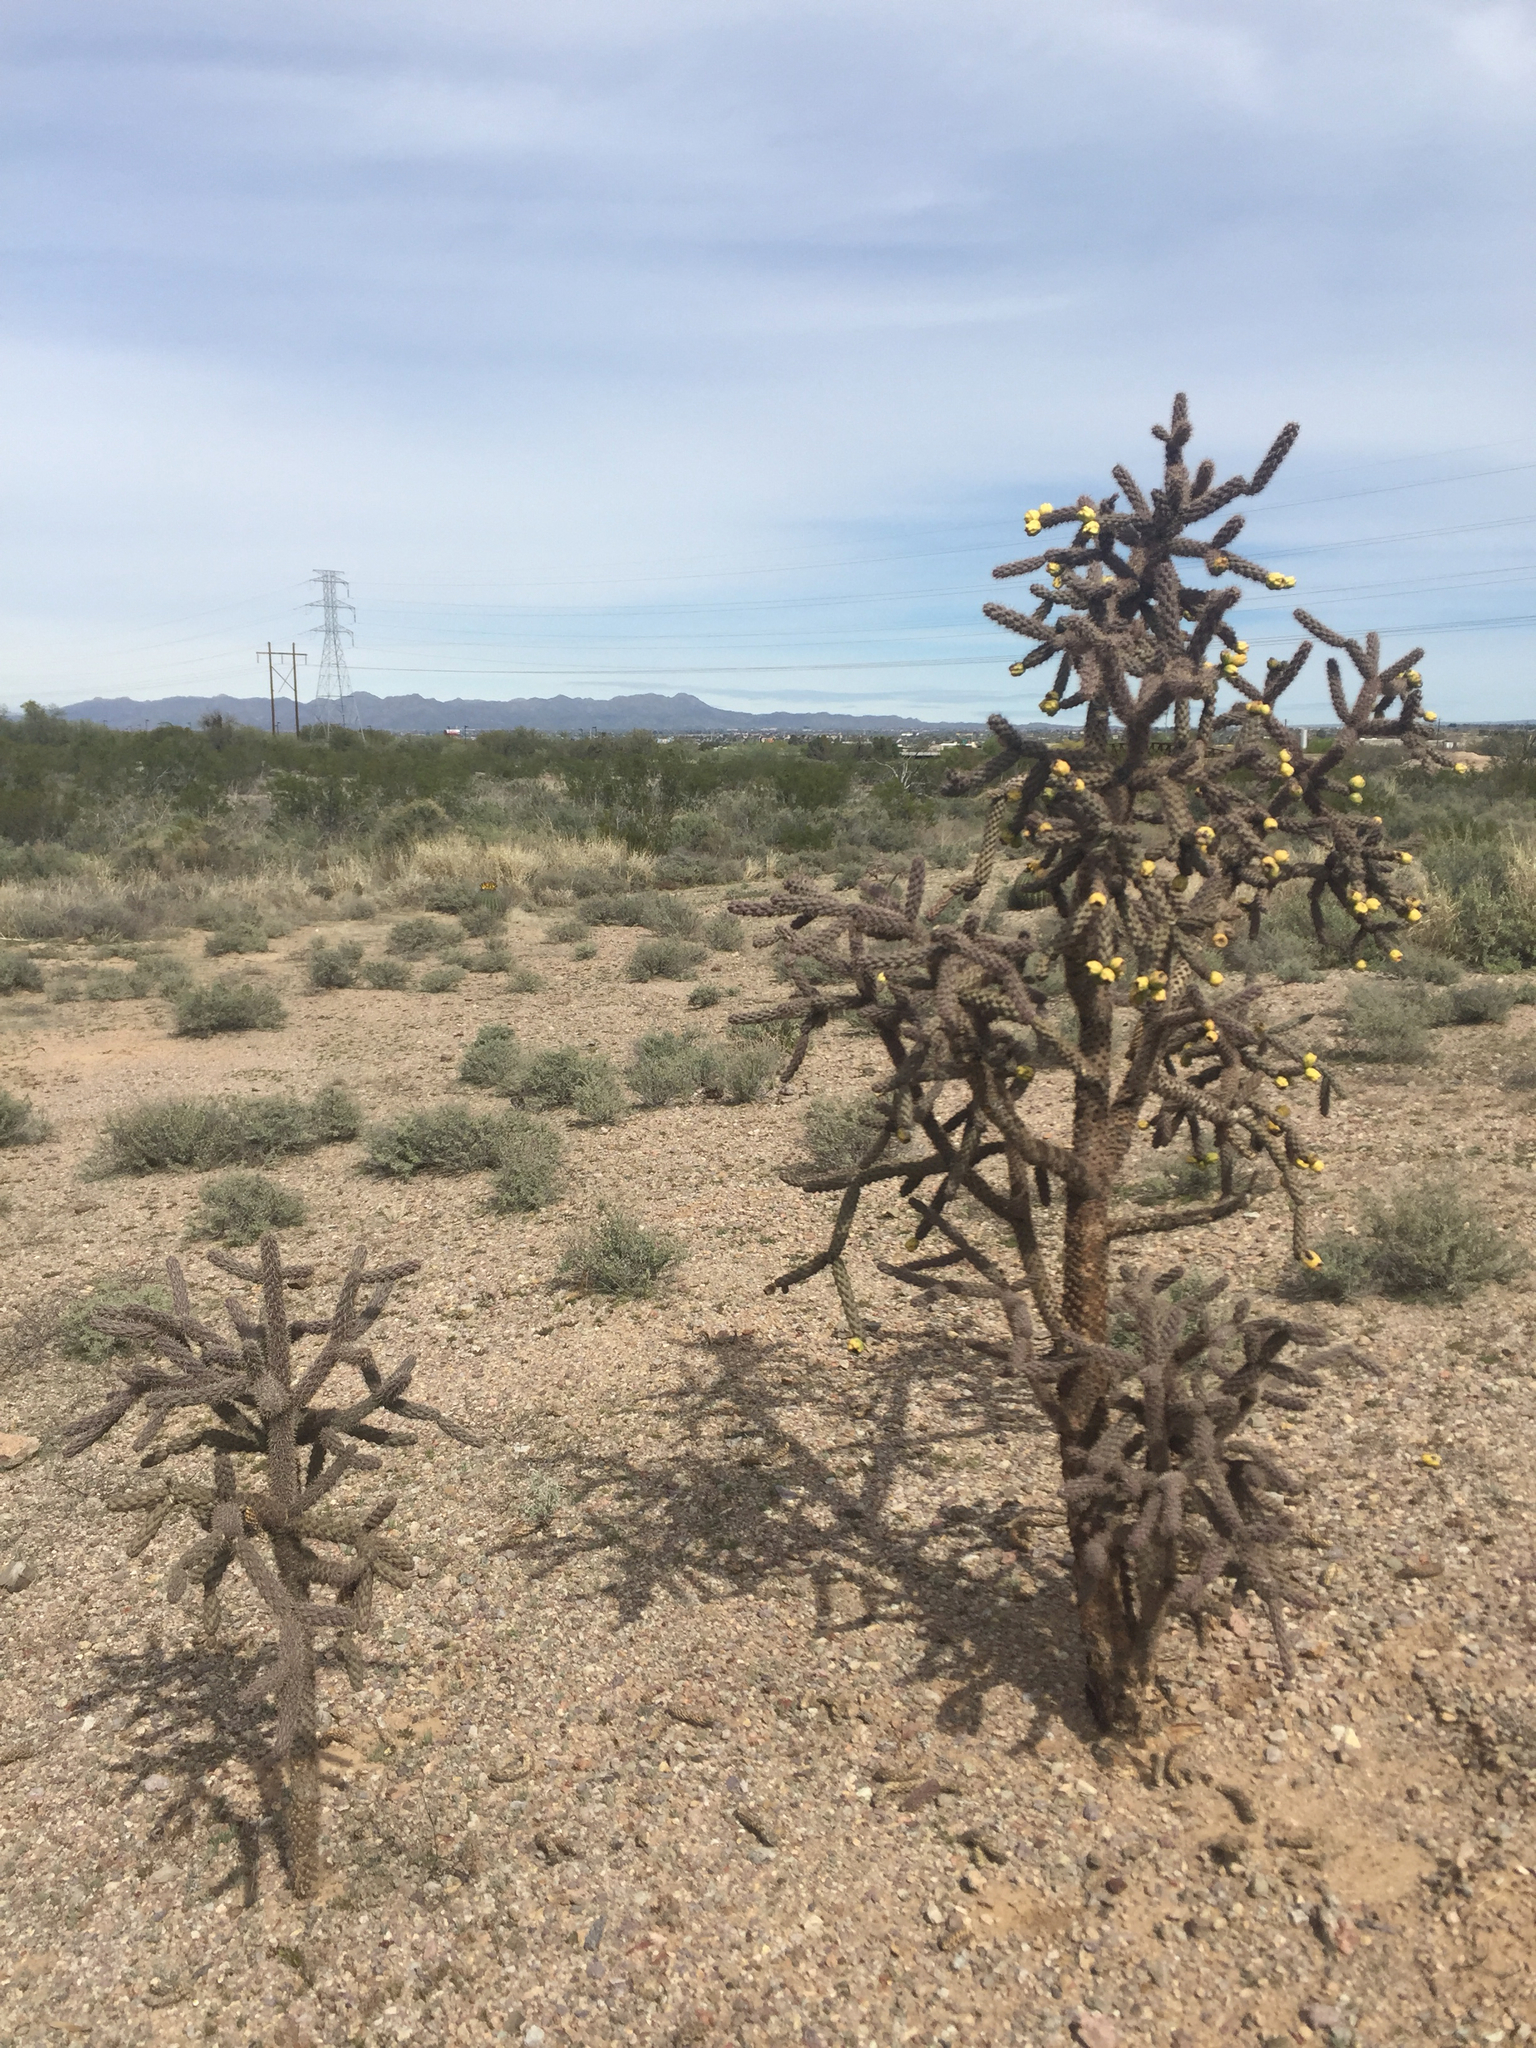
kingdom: Plantae
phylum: Tracheophyta
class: Magnoliopsida
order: Caryophyllales
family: Cactaceae
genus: Cylindropuntia
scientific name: Cylindropuntia imbricata
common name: Candelabrum cactus
